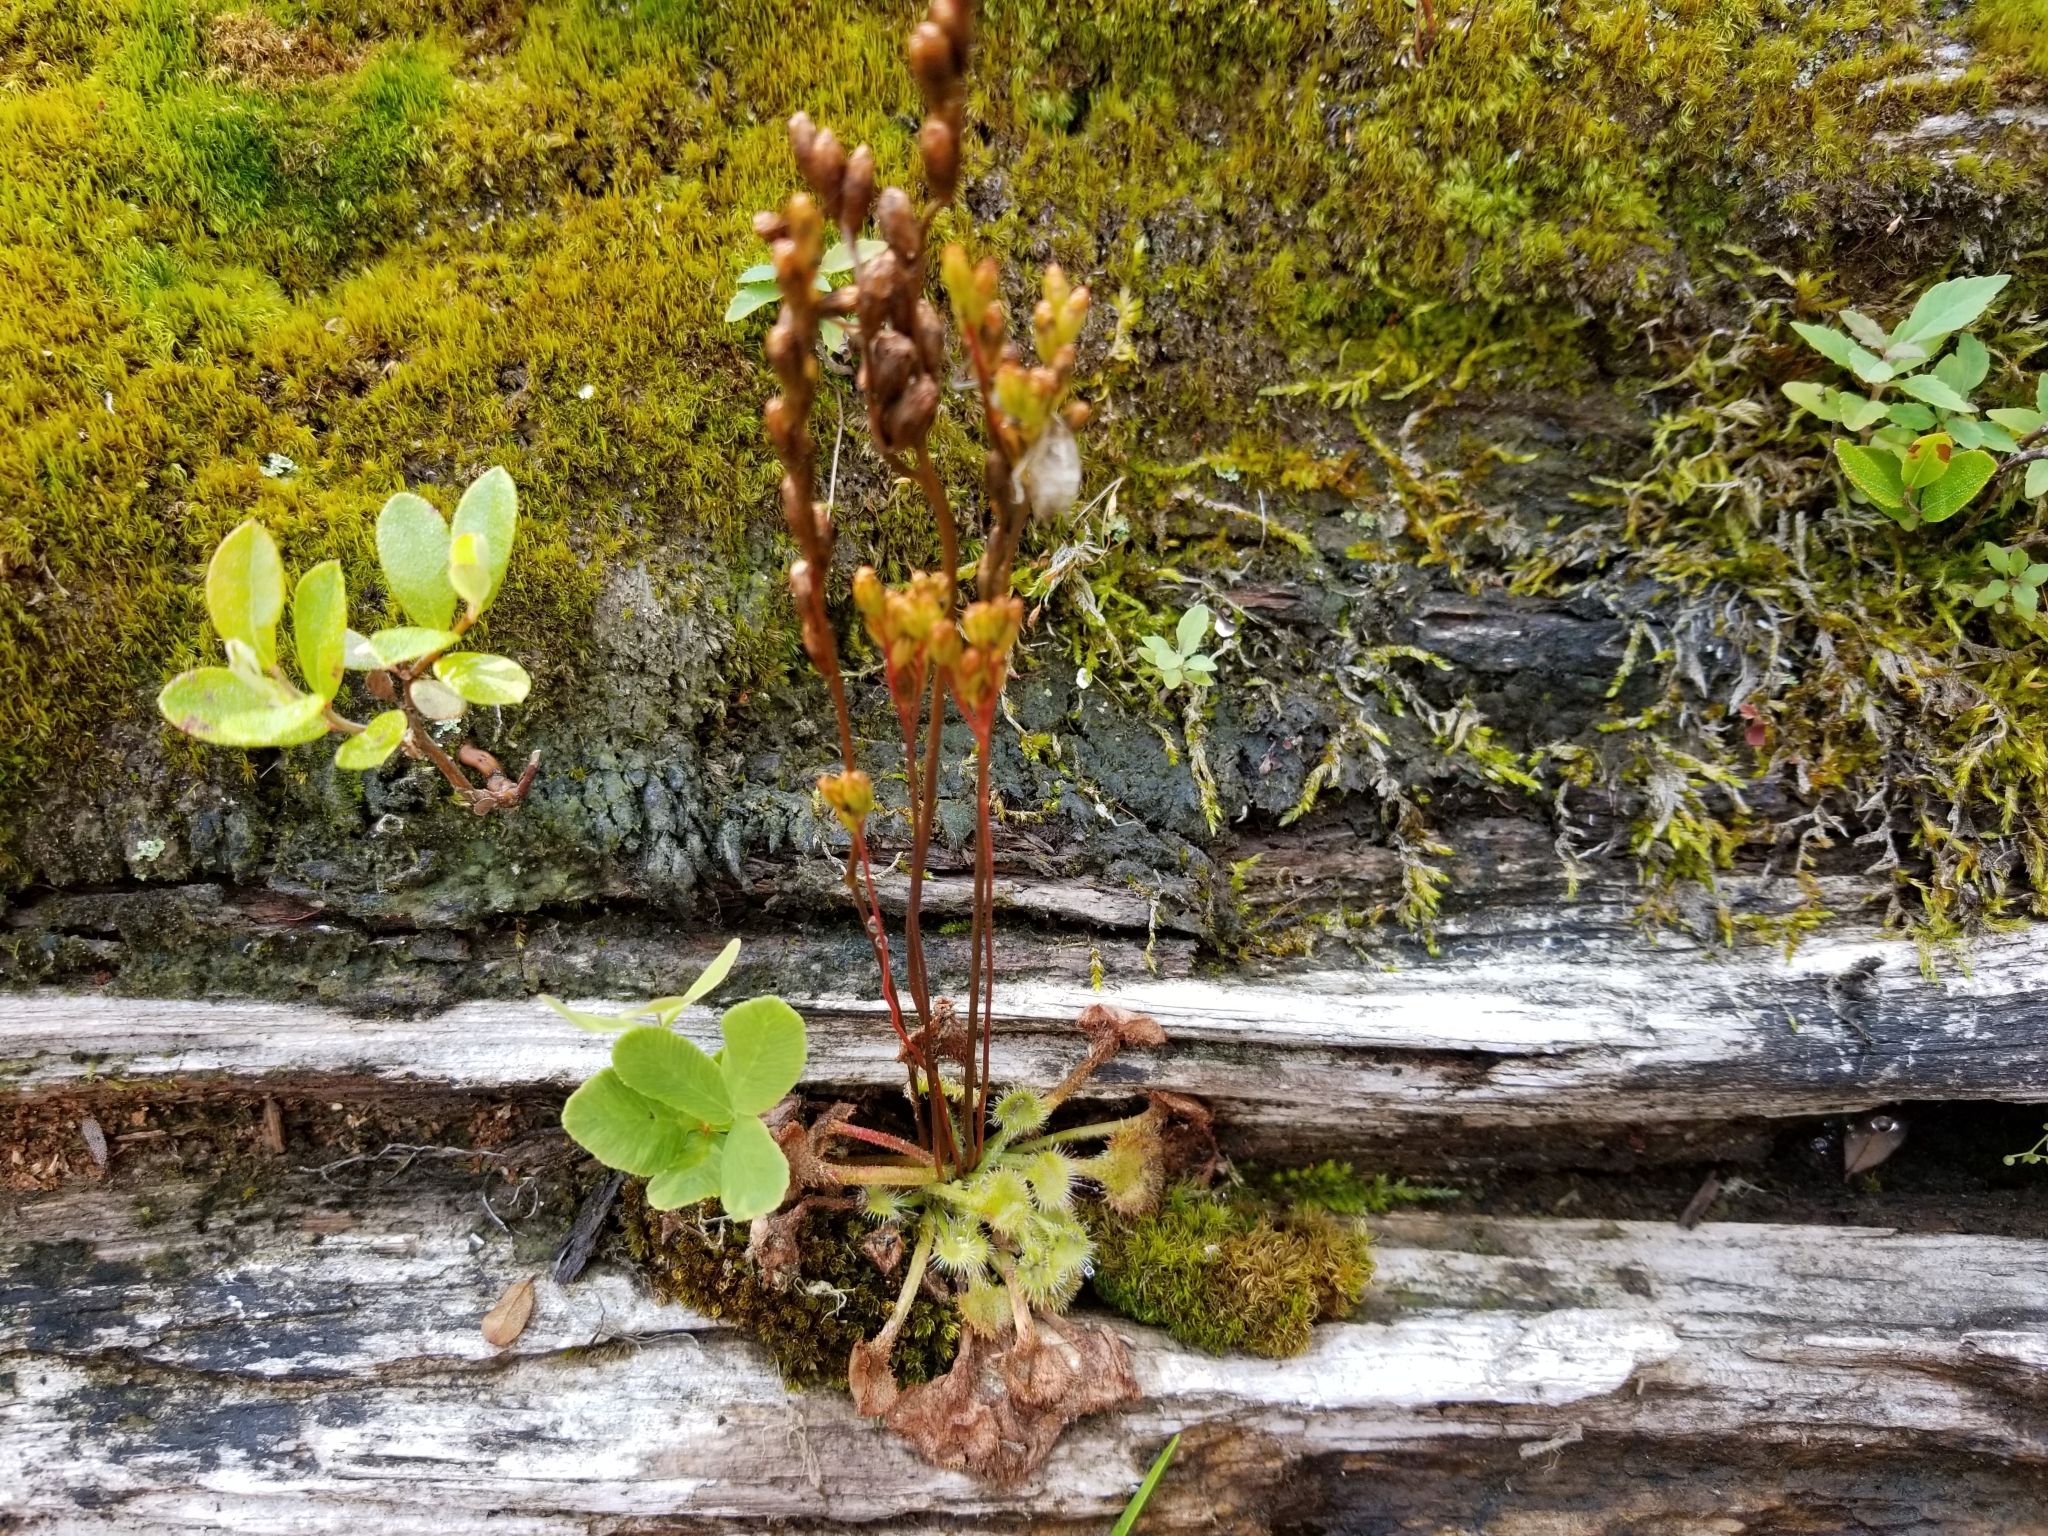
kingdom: Plantae
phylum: Tracheophyta
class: Magnoliopsida
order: Caryophyllales
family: Droseraceae
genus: Drosera
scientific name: Drosera rotundifolia
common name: Round-leaved sundew
